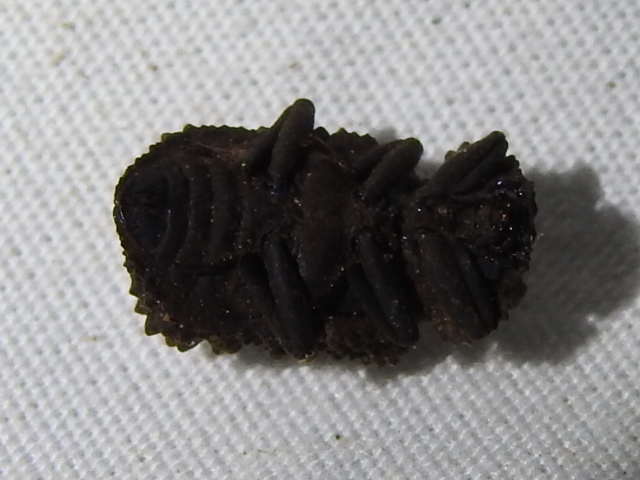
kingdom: Animalia
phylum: Arthropoda
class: Insecta
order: Coleoptera
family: Tenebrionidae
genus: Gnatocerus
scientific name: Gnatocerus cornutus
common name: Broad-horned flour beetle
